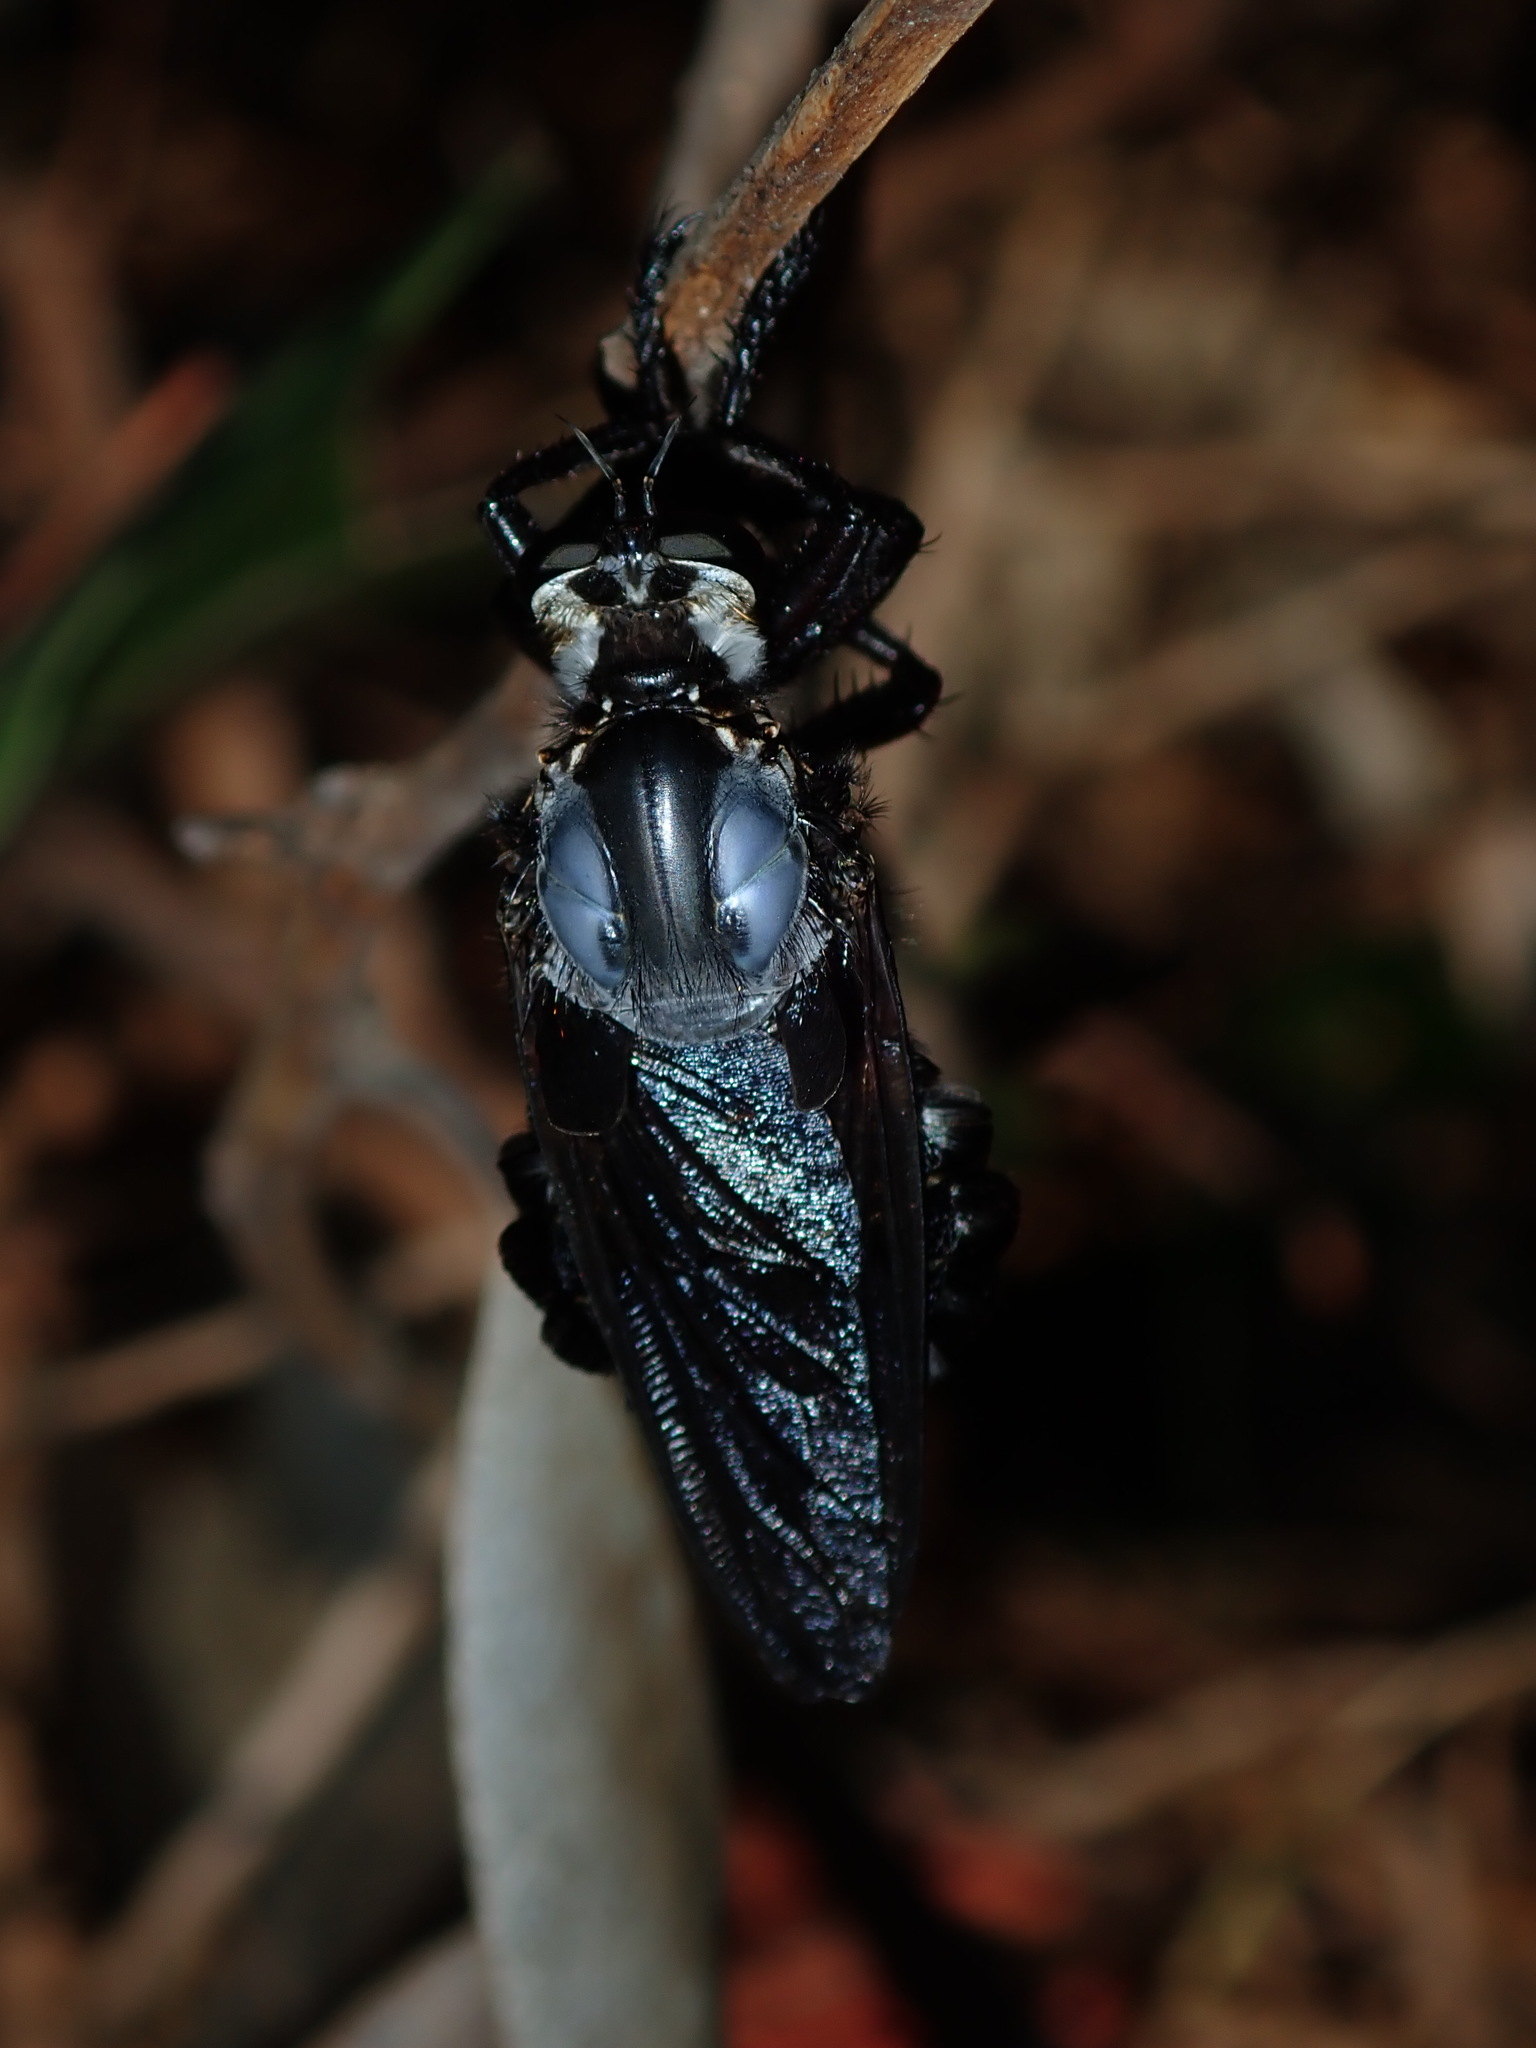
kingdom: Animalia
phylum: Arthropoda
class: Insecta
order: Diptera
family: Asilidae
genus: Blepharotes
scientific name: Blepharotes splendidissimus
